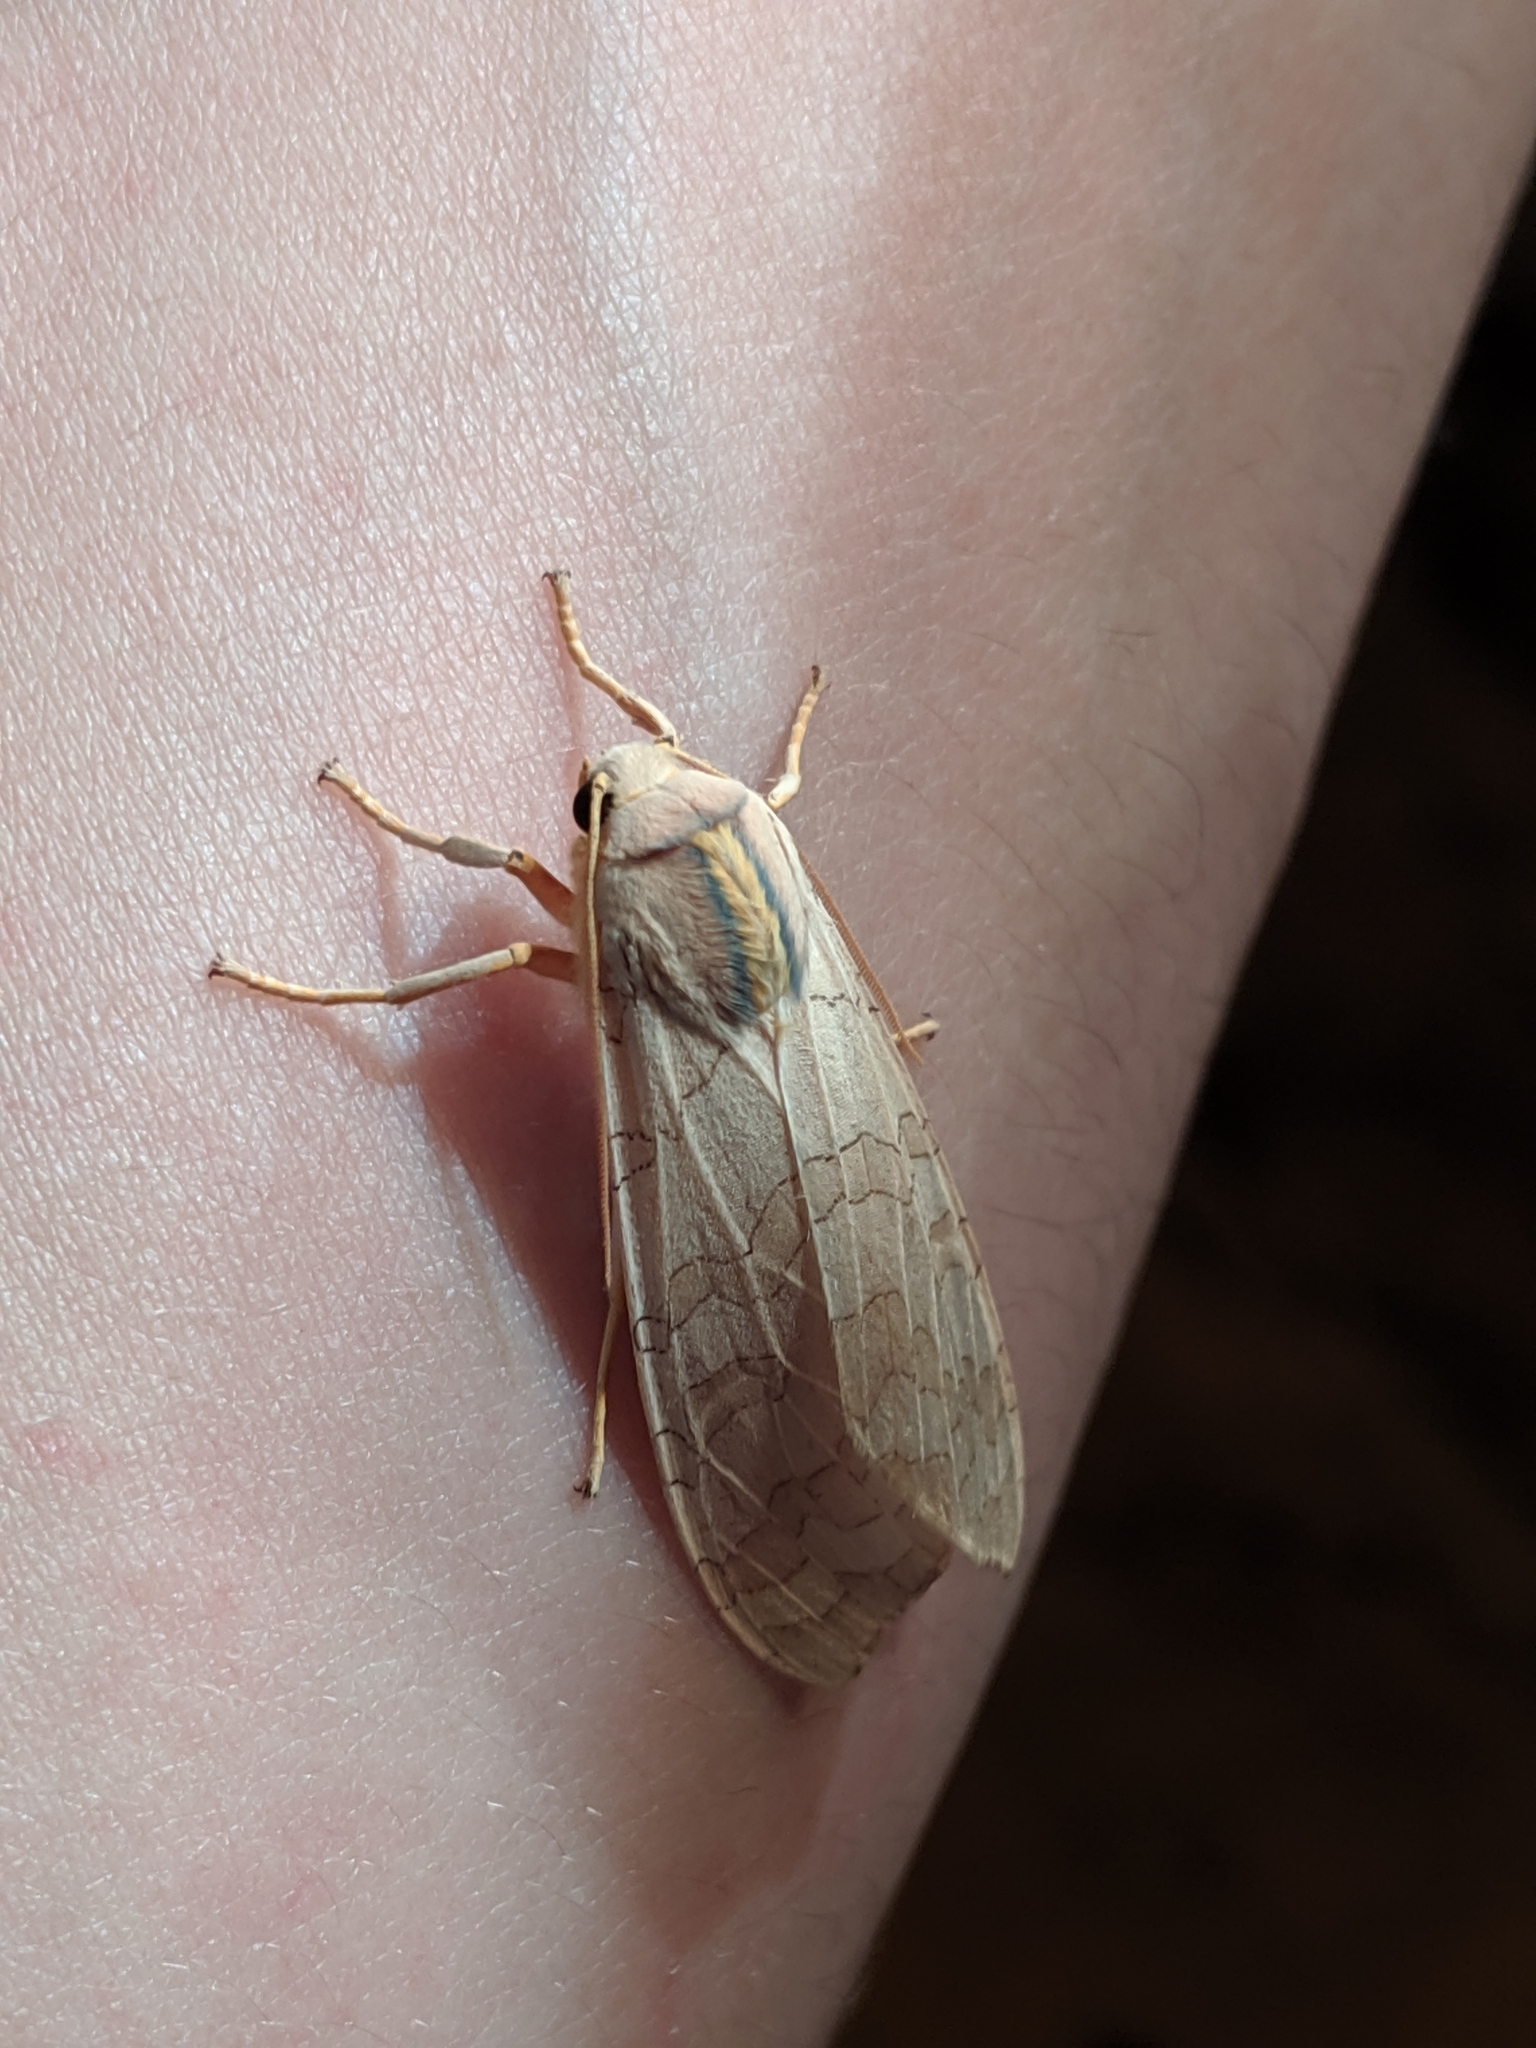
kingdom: Animalia
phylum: Arthropoda
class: Insecta
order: Lepidoptera
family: Erebidae
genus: Halysidota
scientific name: Halysidota
